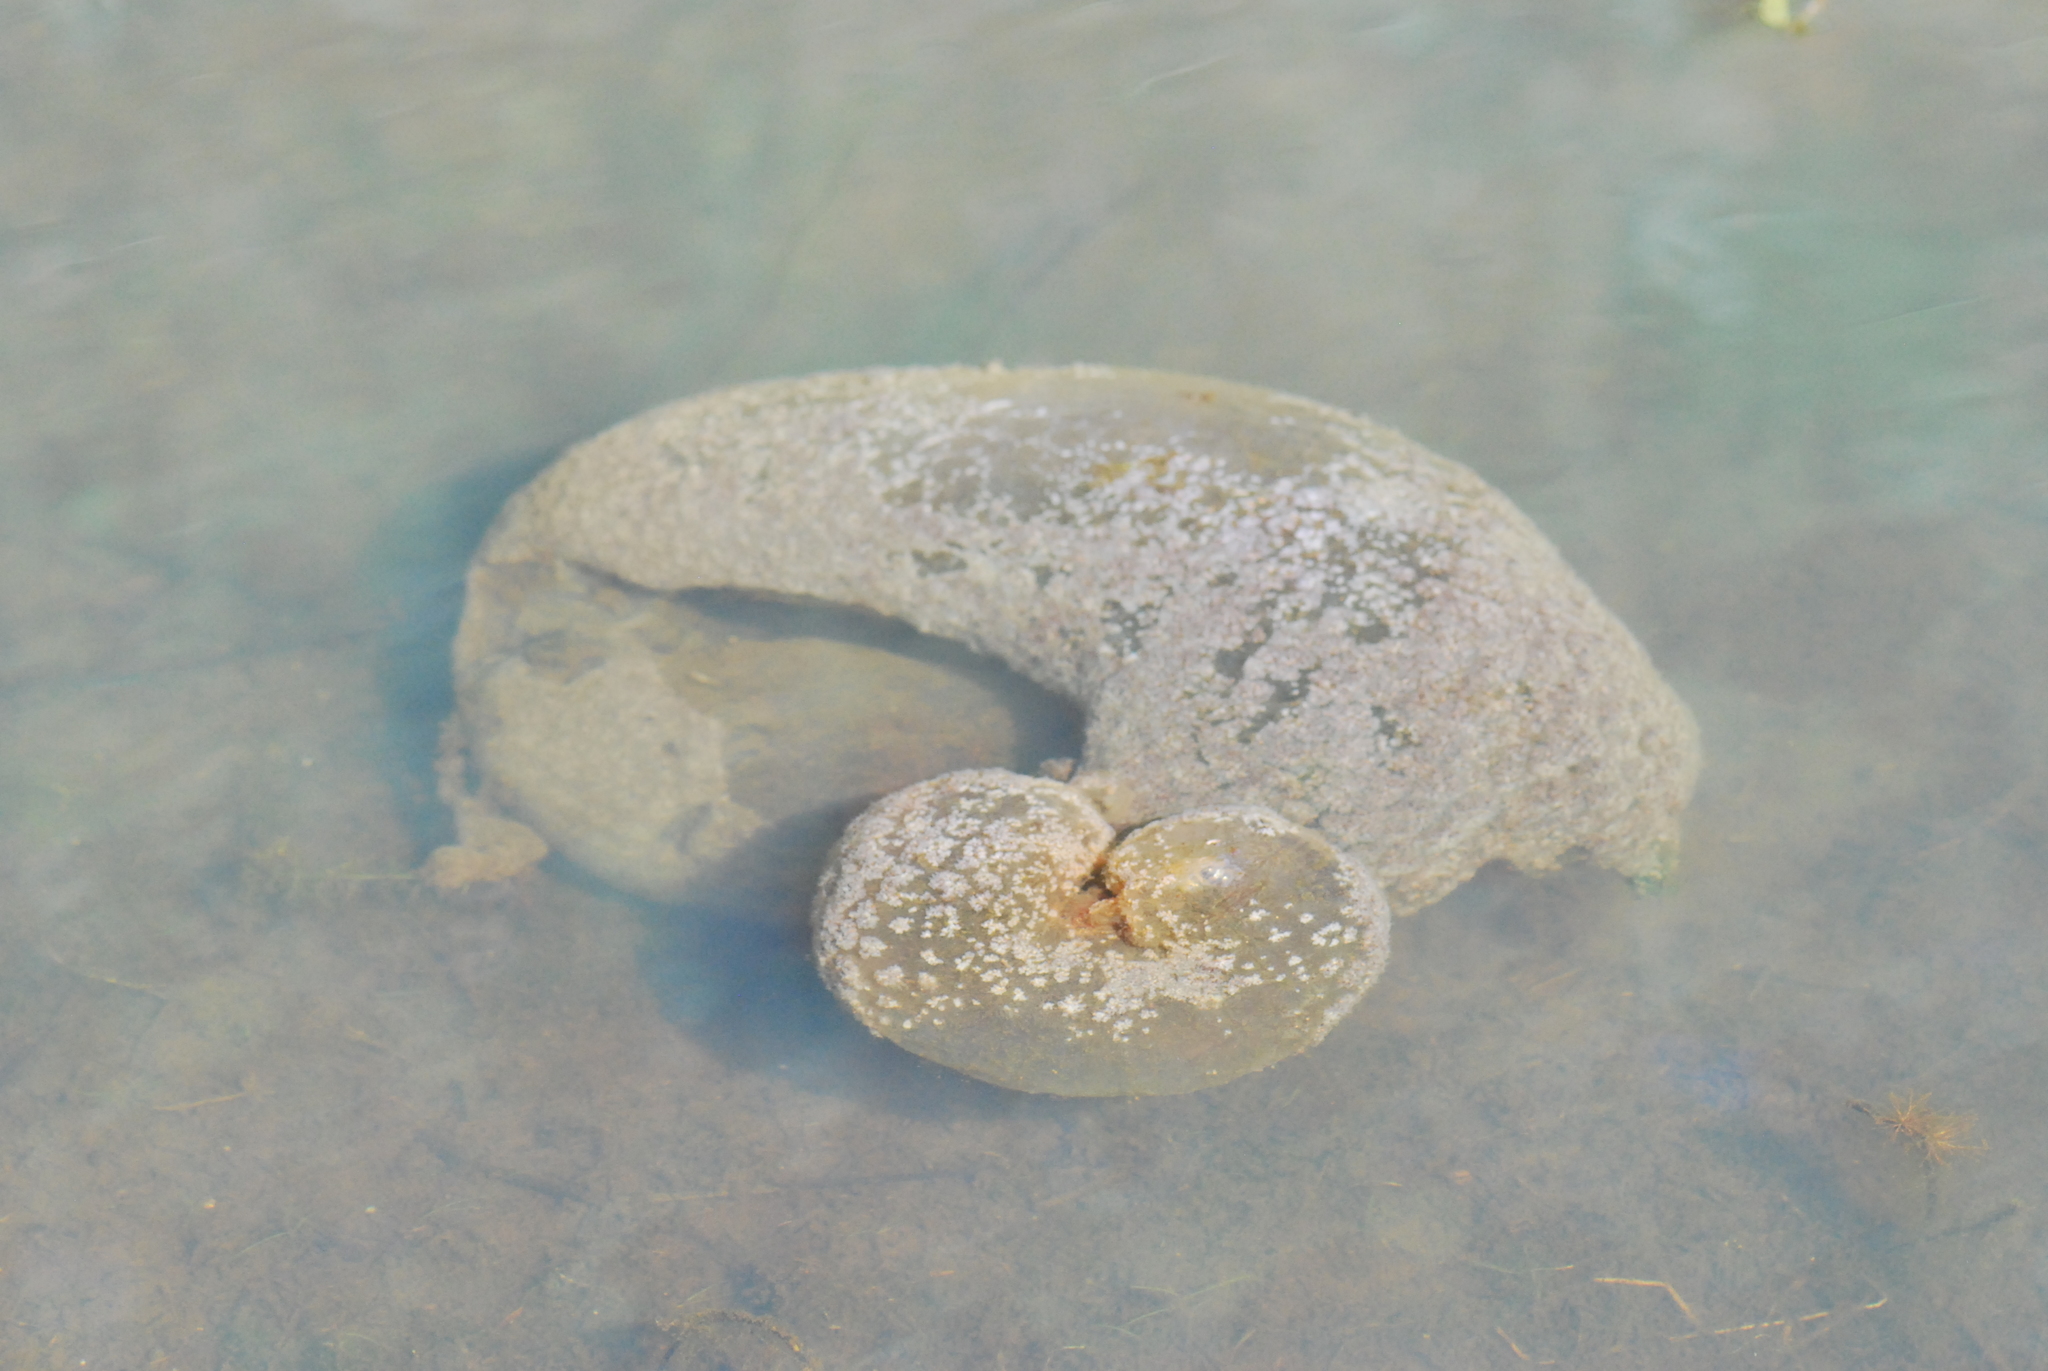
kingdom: Animalia
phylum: Bryozoa
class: Phylactolaemata
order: Plumatellida
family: Pectinatellidae
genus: Pectinatella
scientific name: Pectinatella magnifica
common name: Magnificent bryozoan
